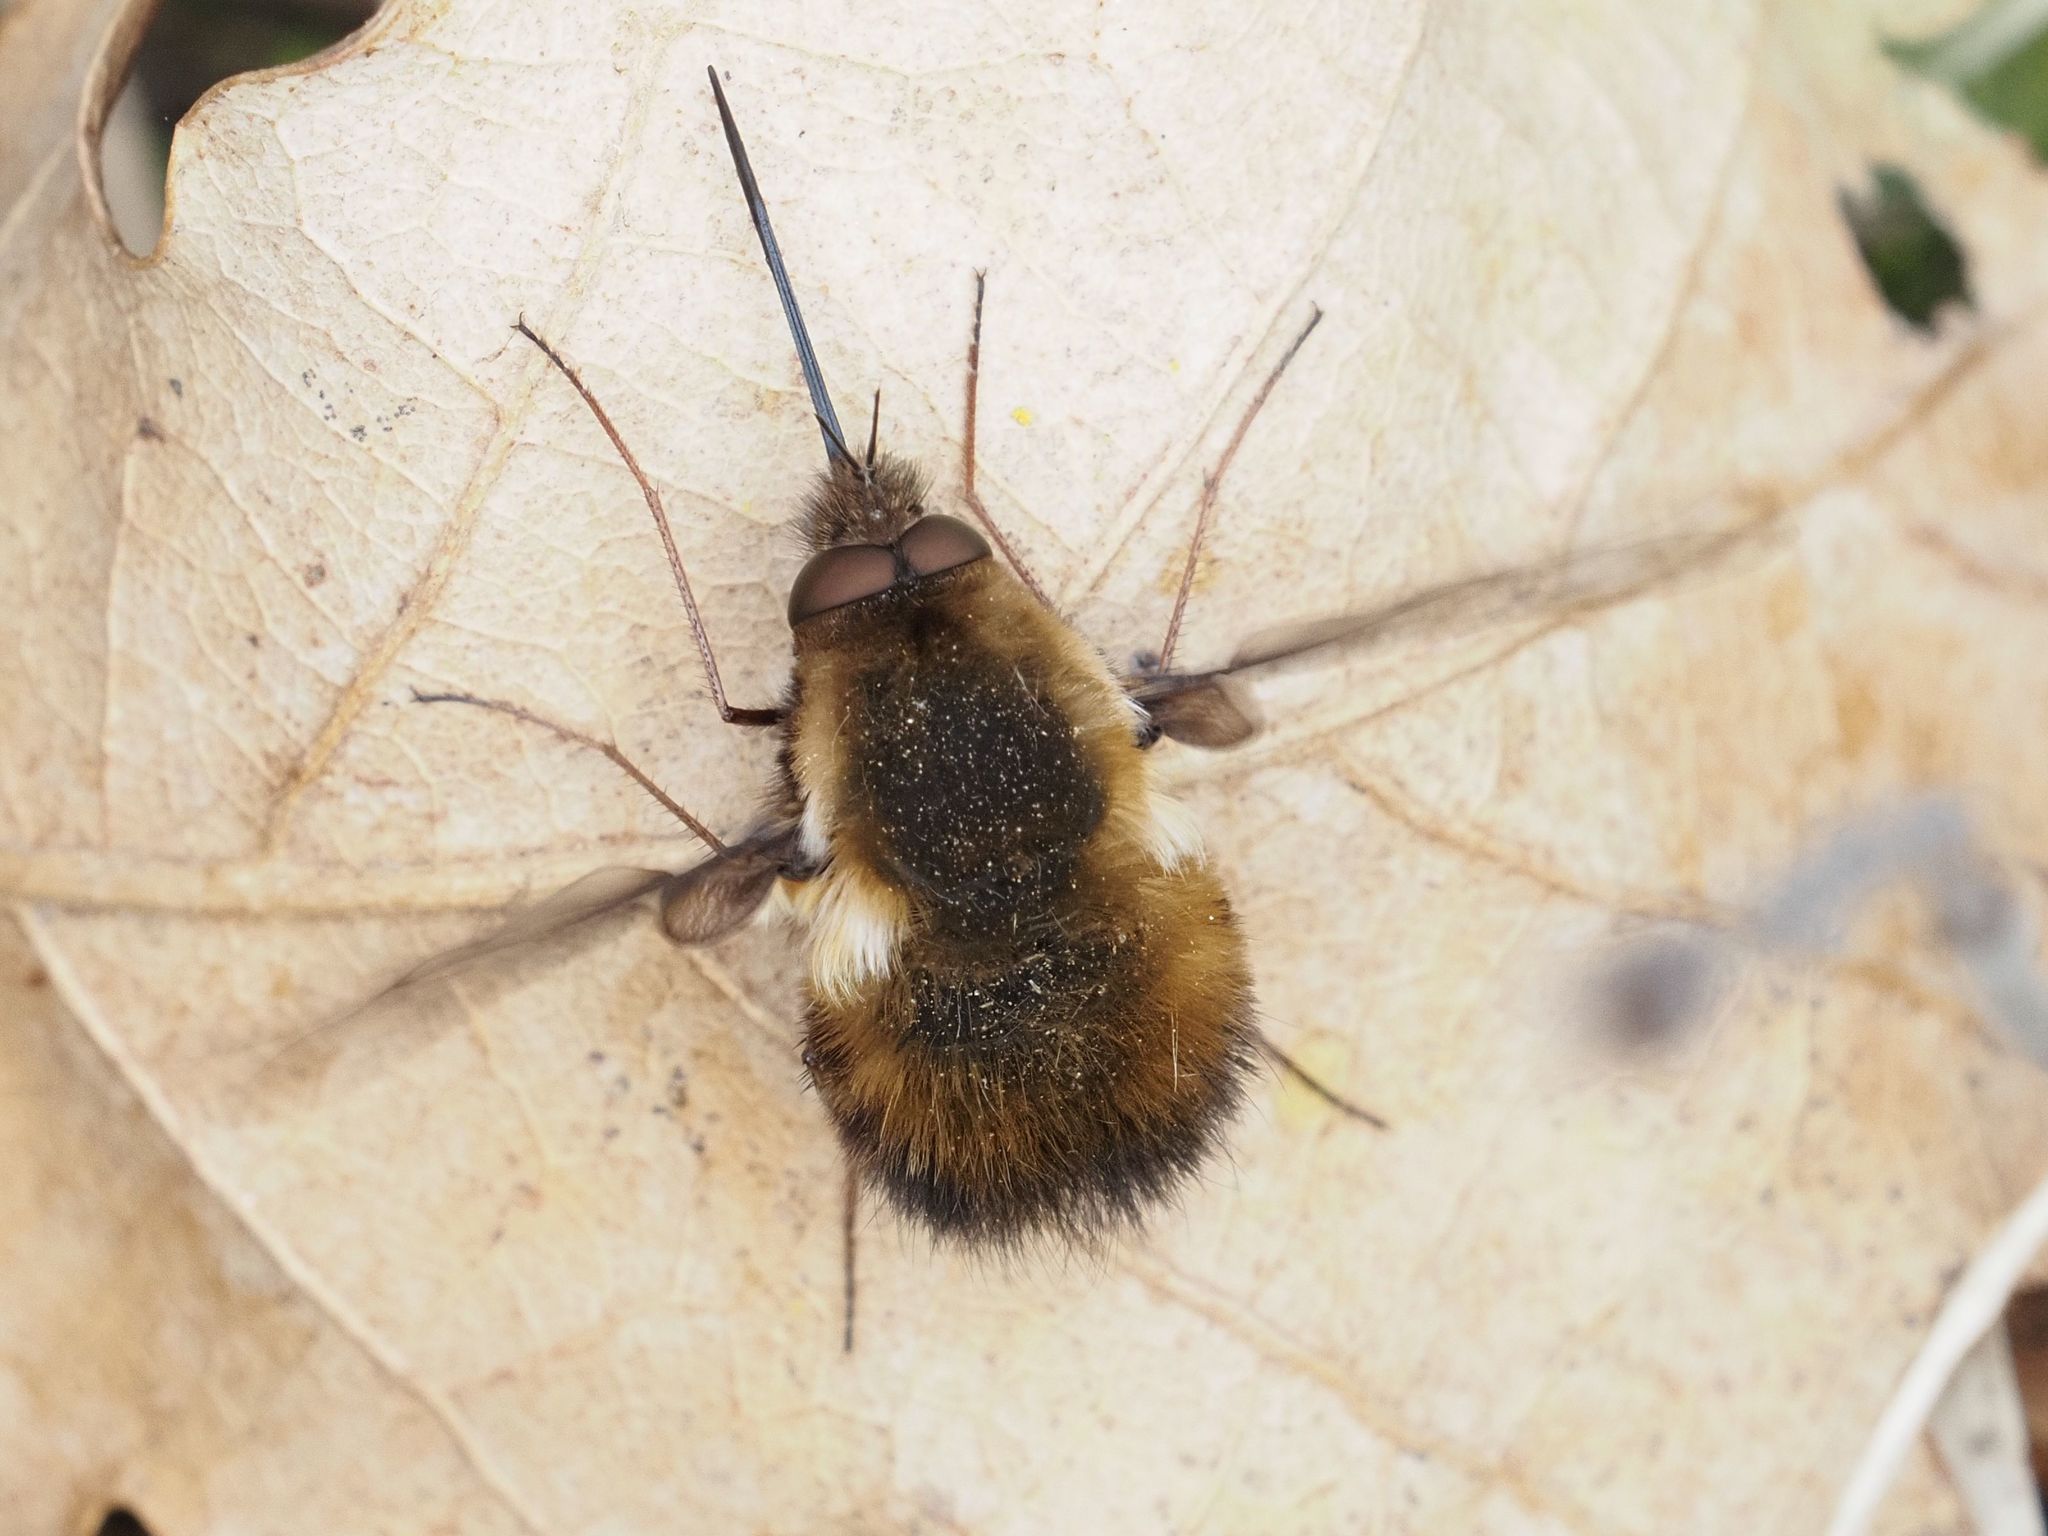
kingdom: Animalia
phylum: Arthropoda
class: Insecta
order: Diptera
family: Bombyliidae
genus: Bombylius
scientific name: Bombylius discolor
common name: Dotted bee-fly
